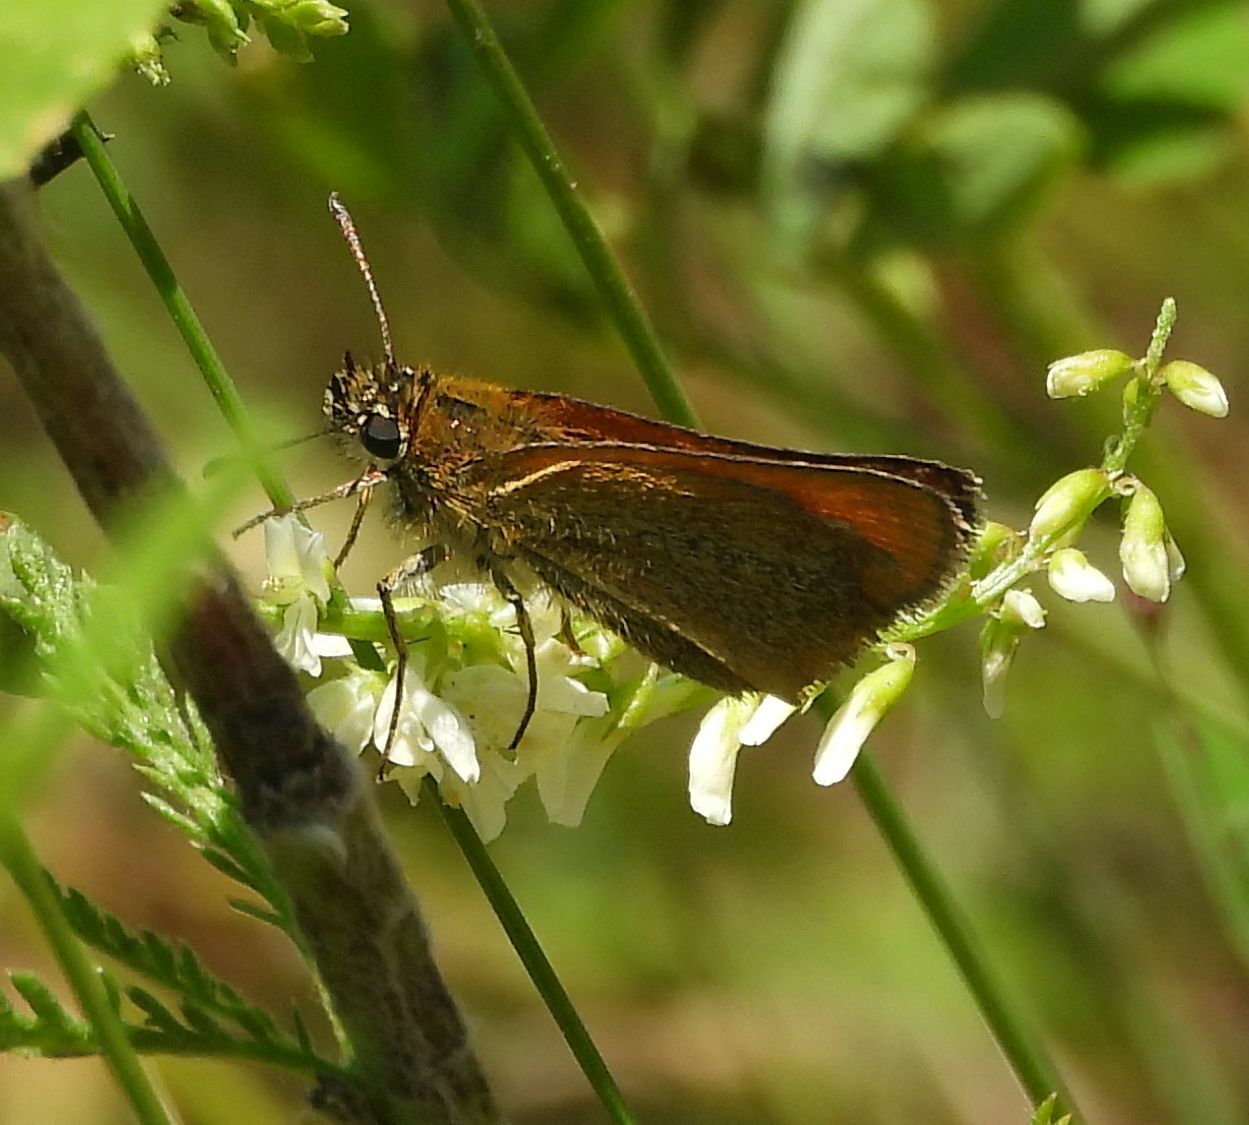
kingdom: Animalia
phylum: Arthropoda
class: Insecta
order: Lepidoptera
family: Hesperiidae
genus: Thymelicus
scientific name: Thymelicus lineola
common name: Essex skipper
